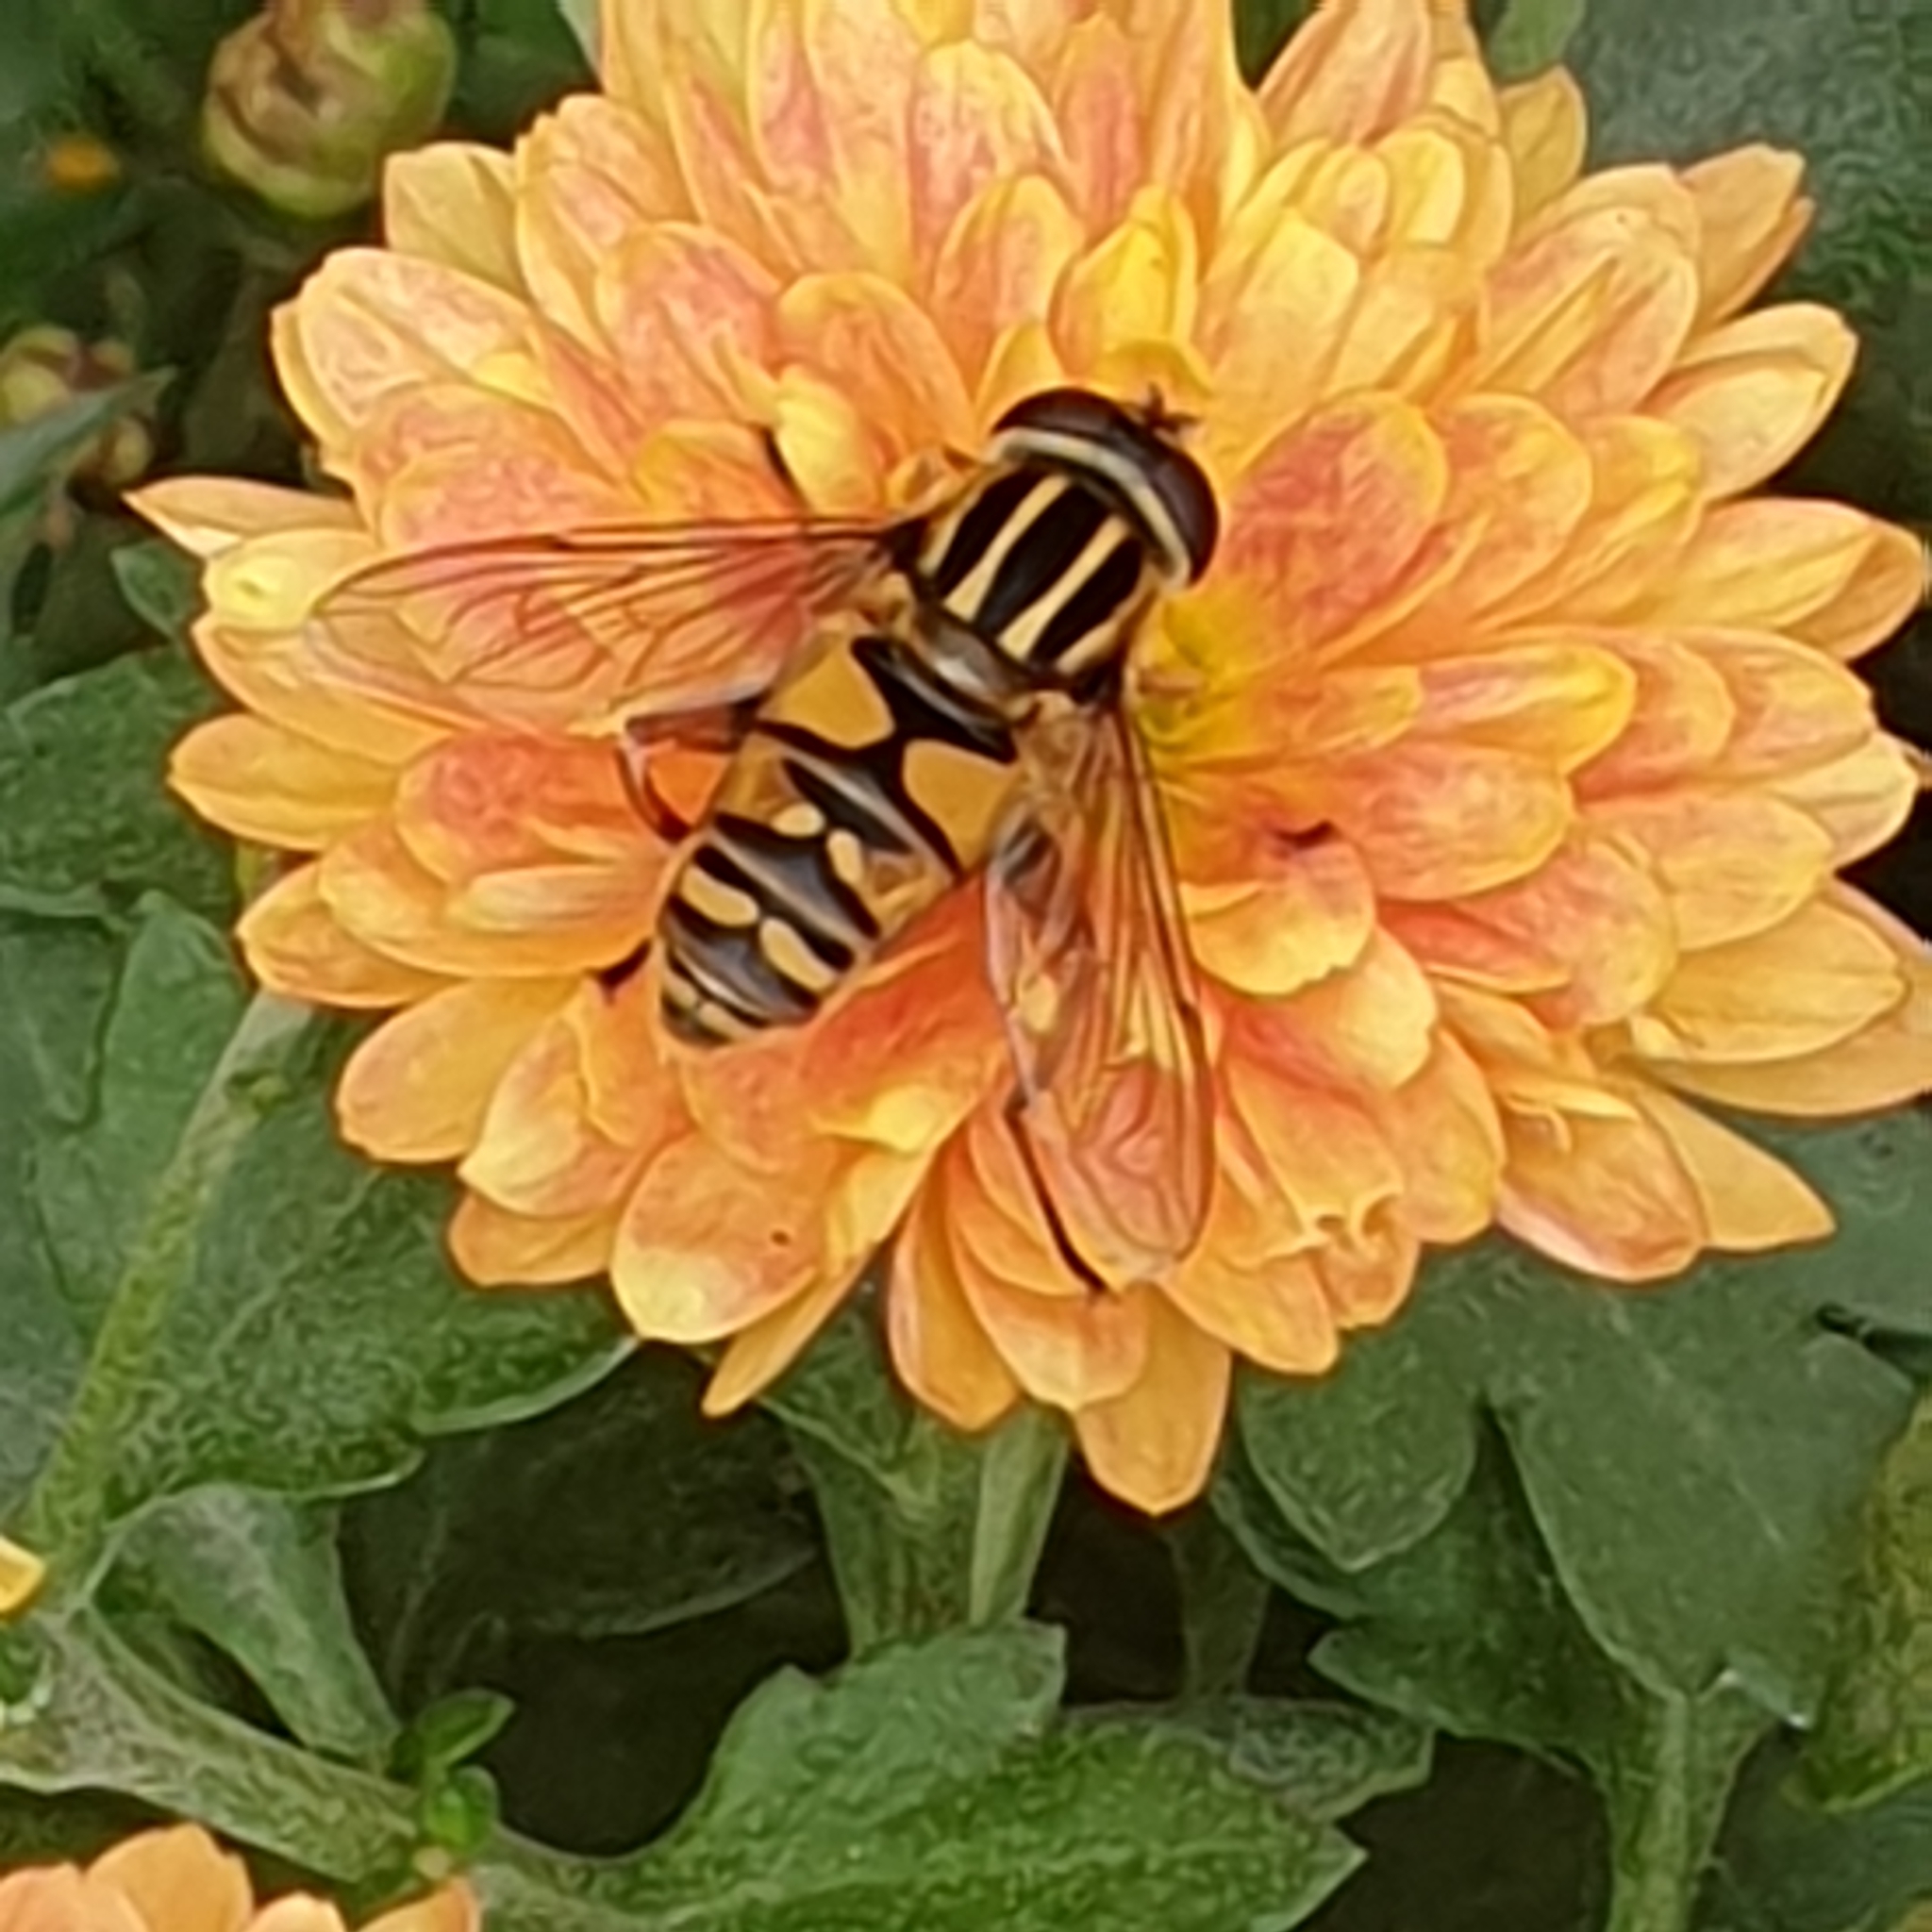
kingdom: Animalia
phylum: Arthropoda
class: Insecta
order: Diptera
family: Syrphidae
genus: Helophilus
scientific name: Helophilus pendulus
